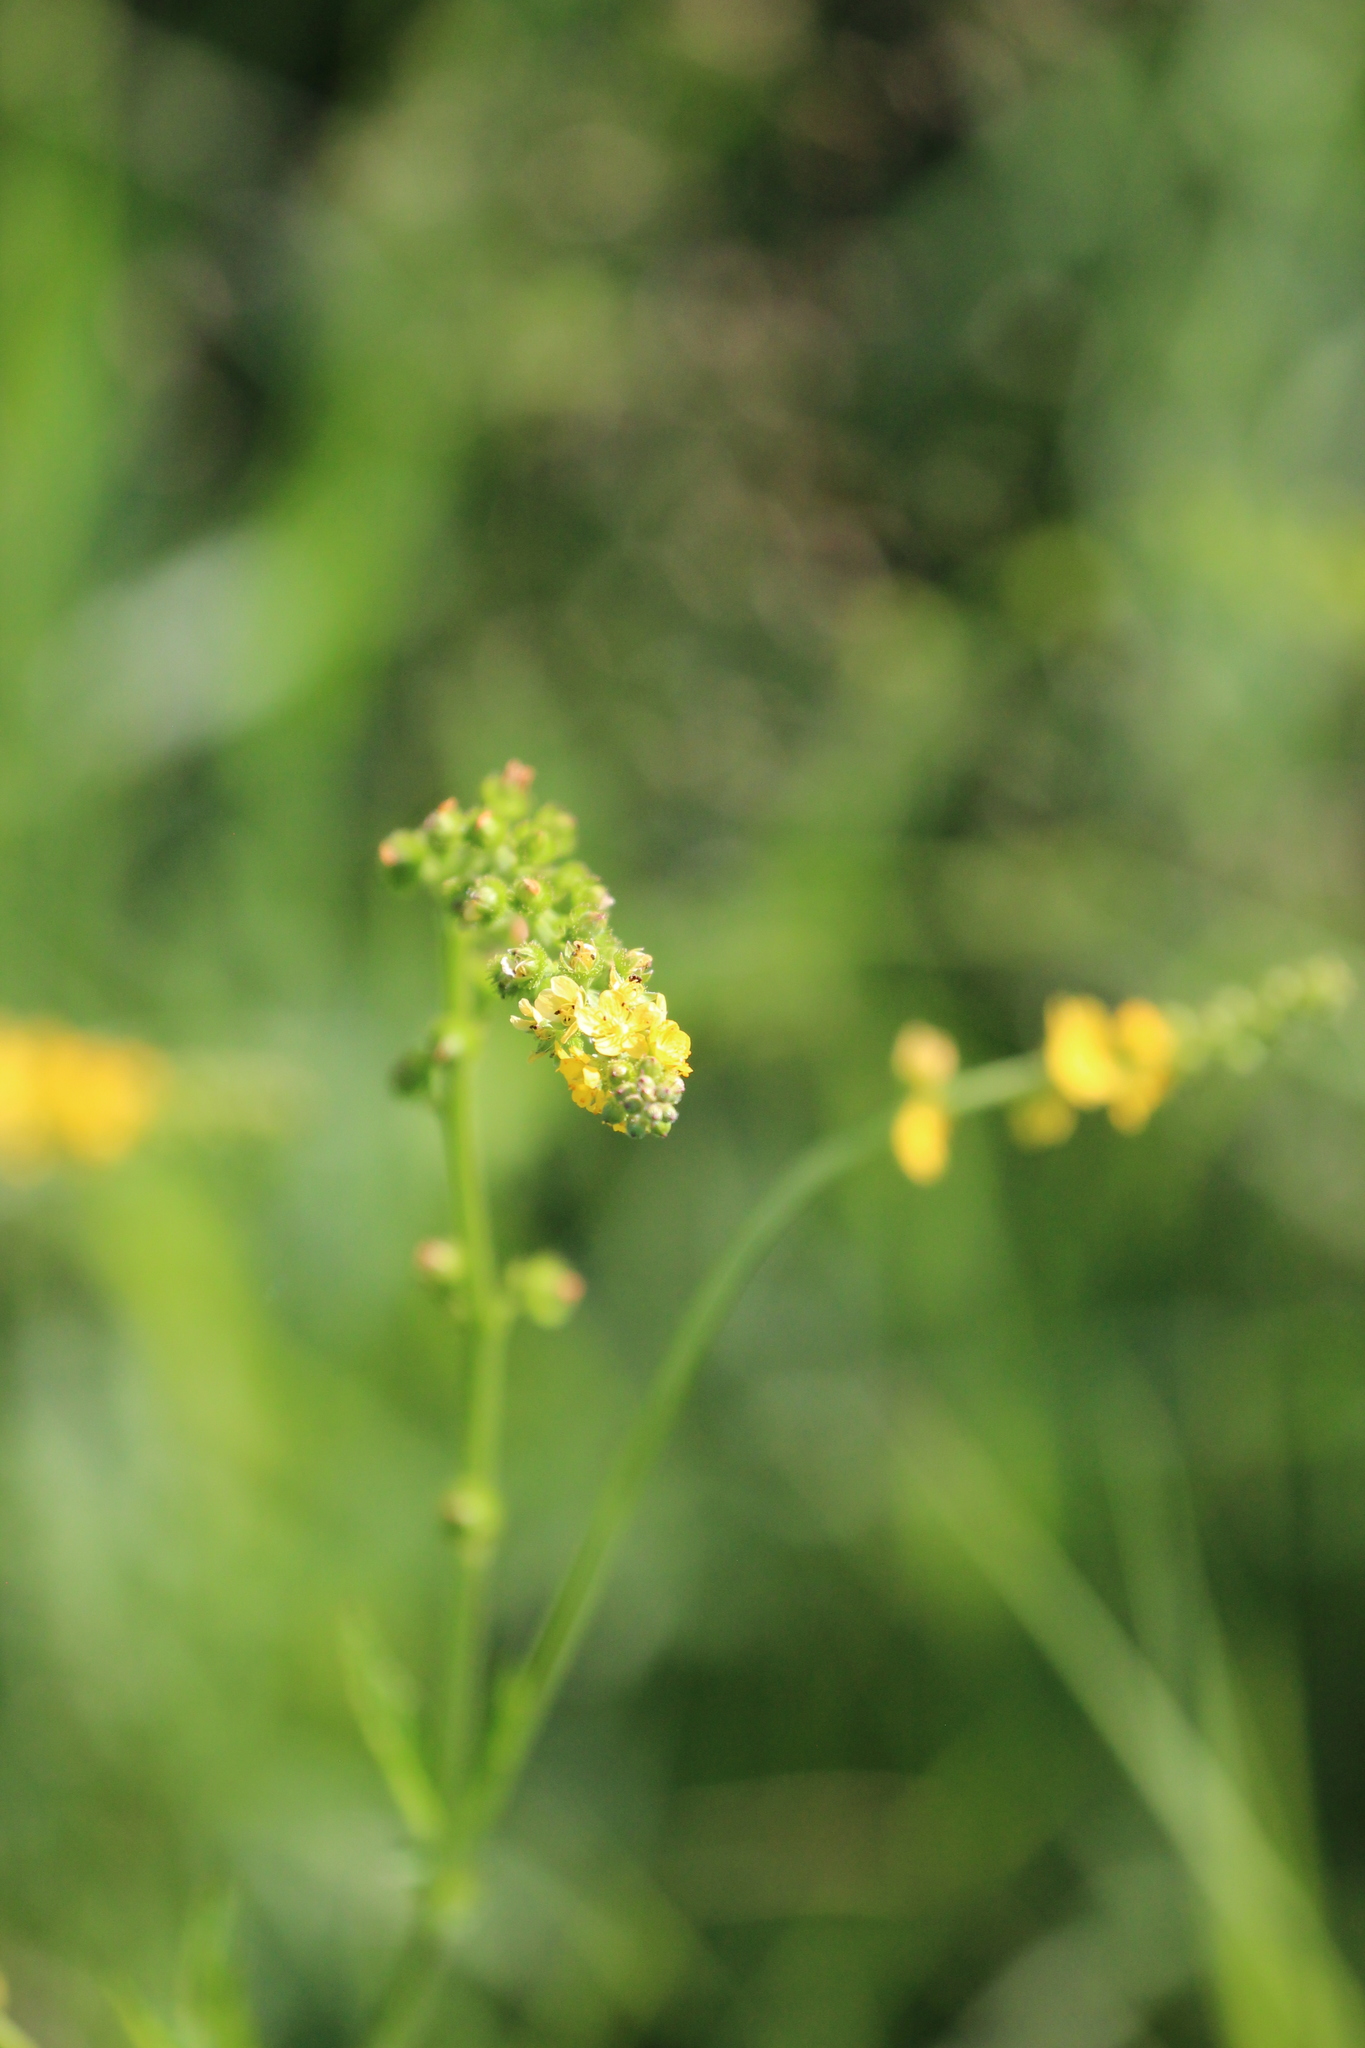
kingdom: Plantae
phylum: Tracheophyta
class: Magnoliopsida
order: Rosales
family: Rosaceae
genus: Agrimonia
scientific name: Agrimonia gryposepala
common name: Common agrimony
